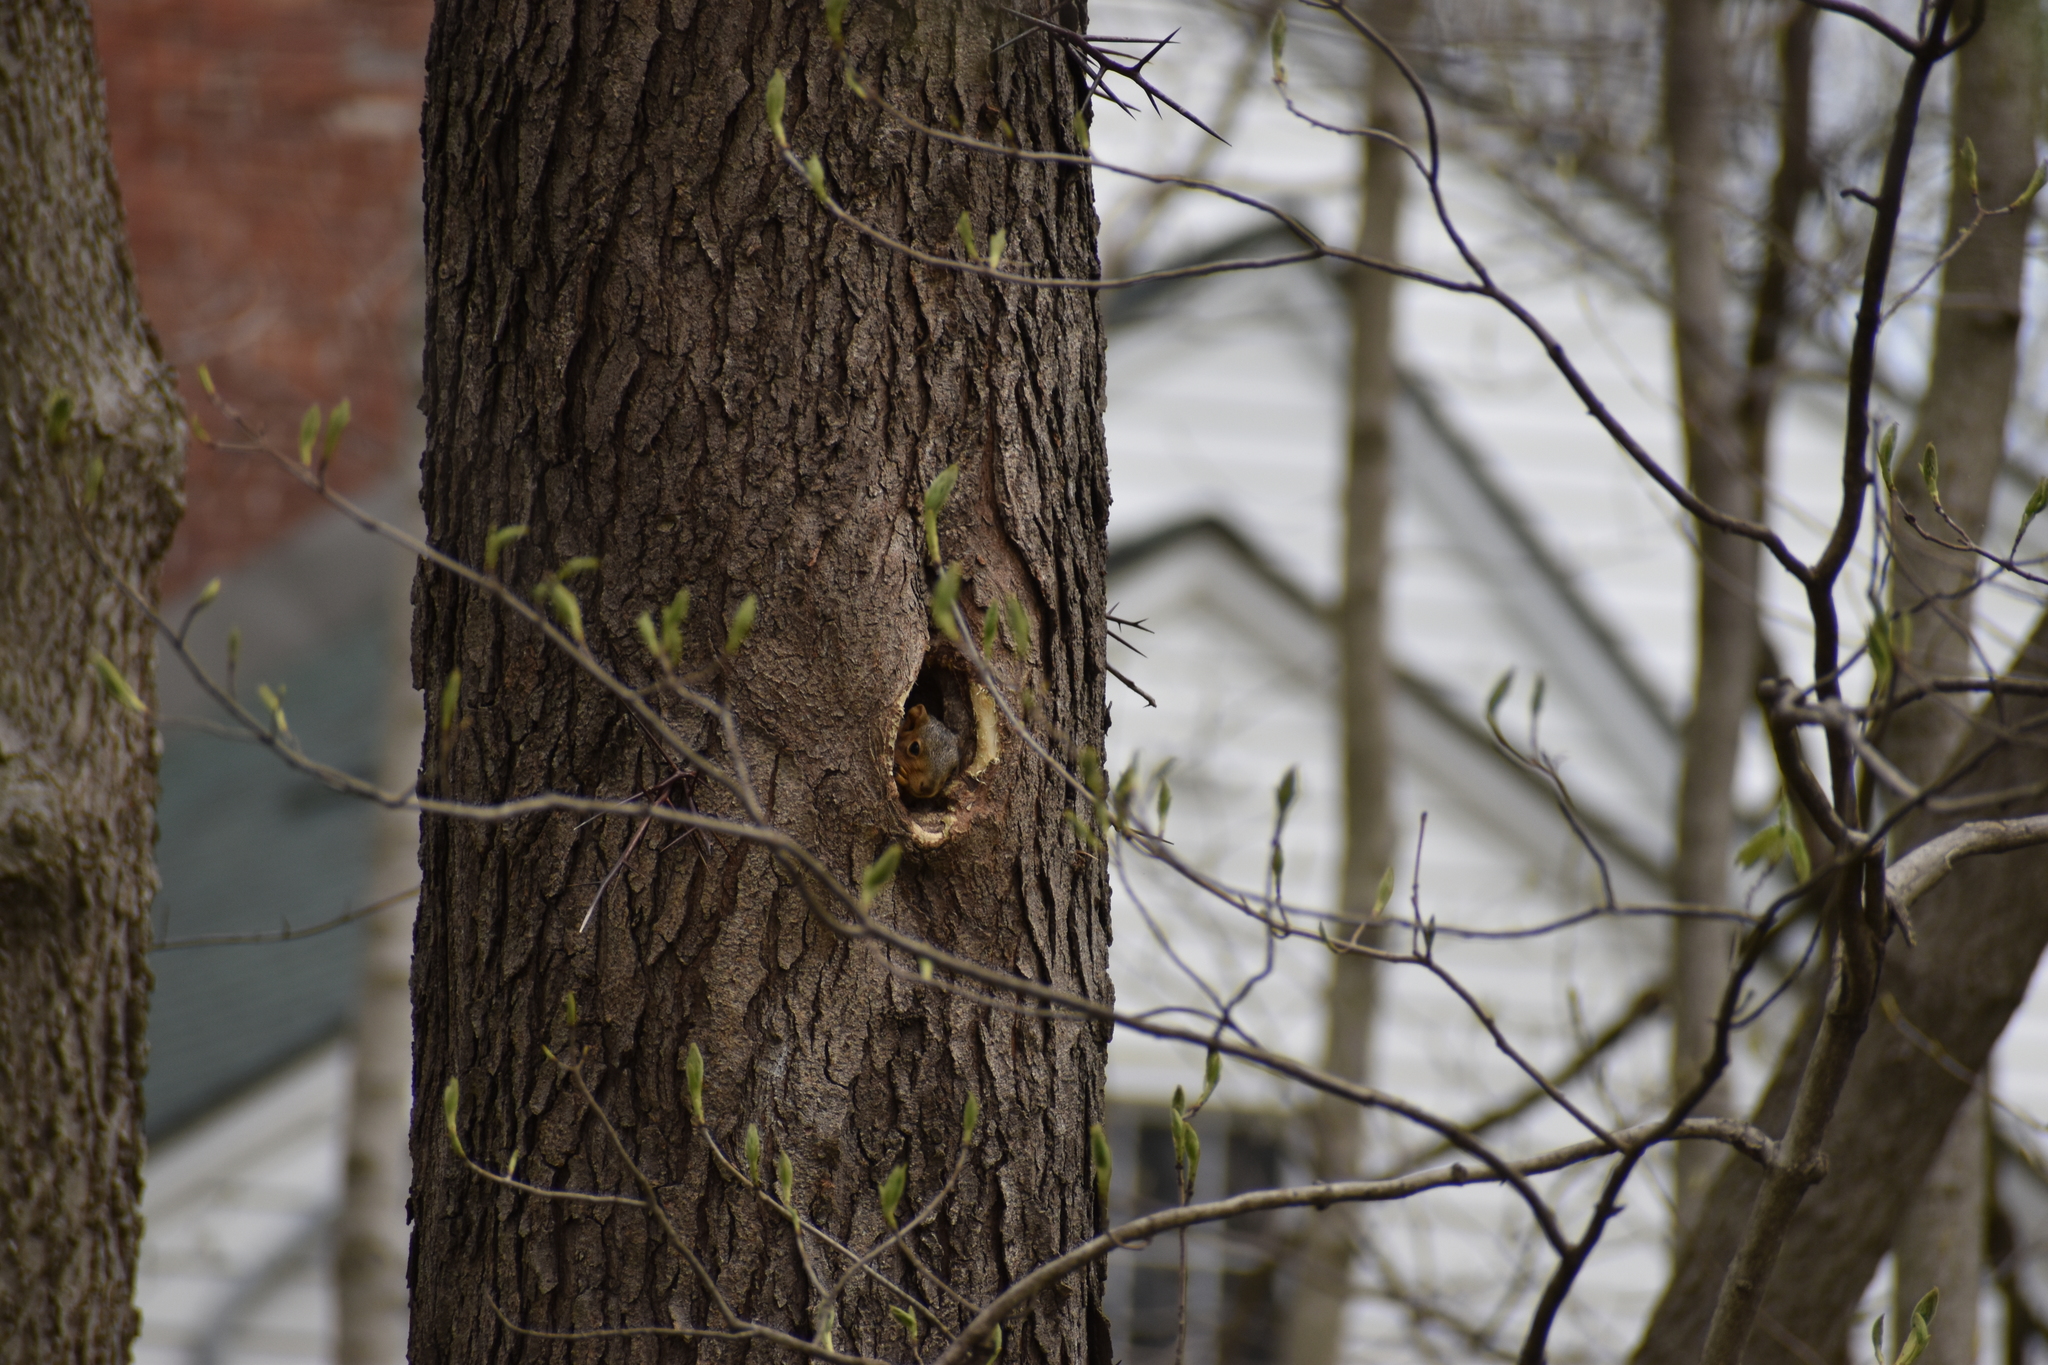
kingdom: Animalia
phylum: Chordata
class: Mammalia
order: Rodentia
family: Sciuridae
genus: Sciurus
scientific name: Sciurus niger
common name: Fox squirrel
